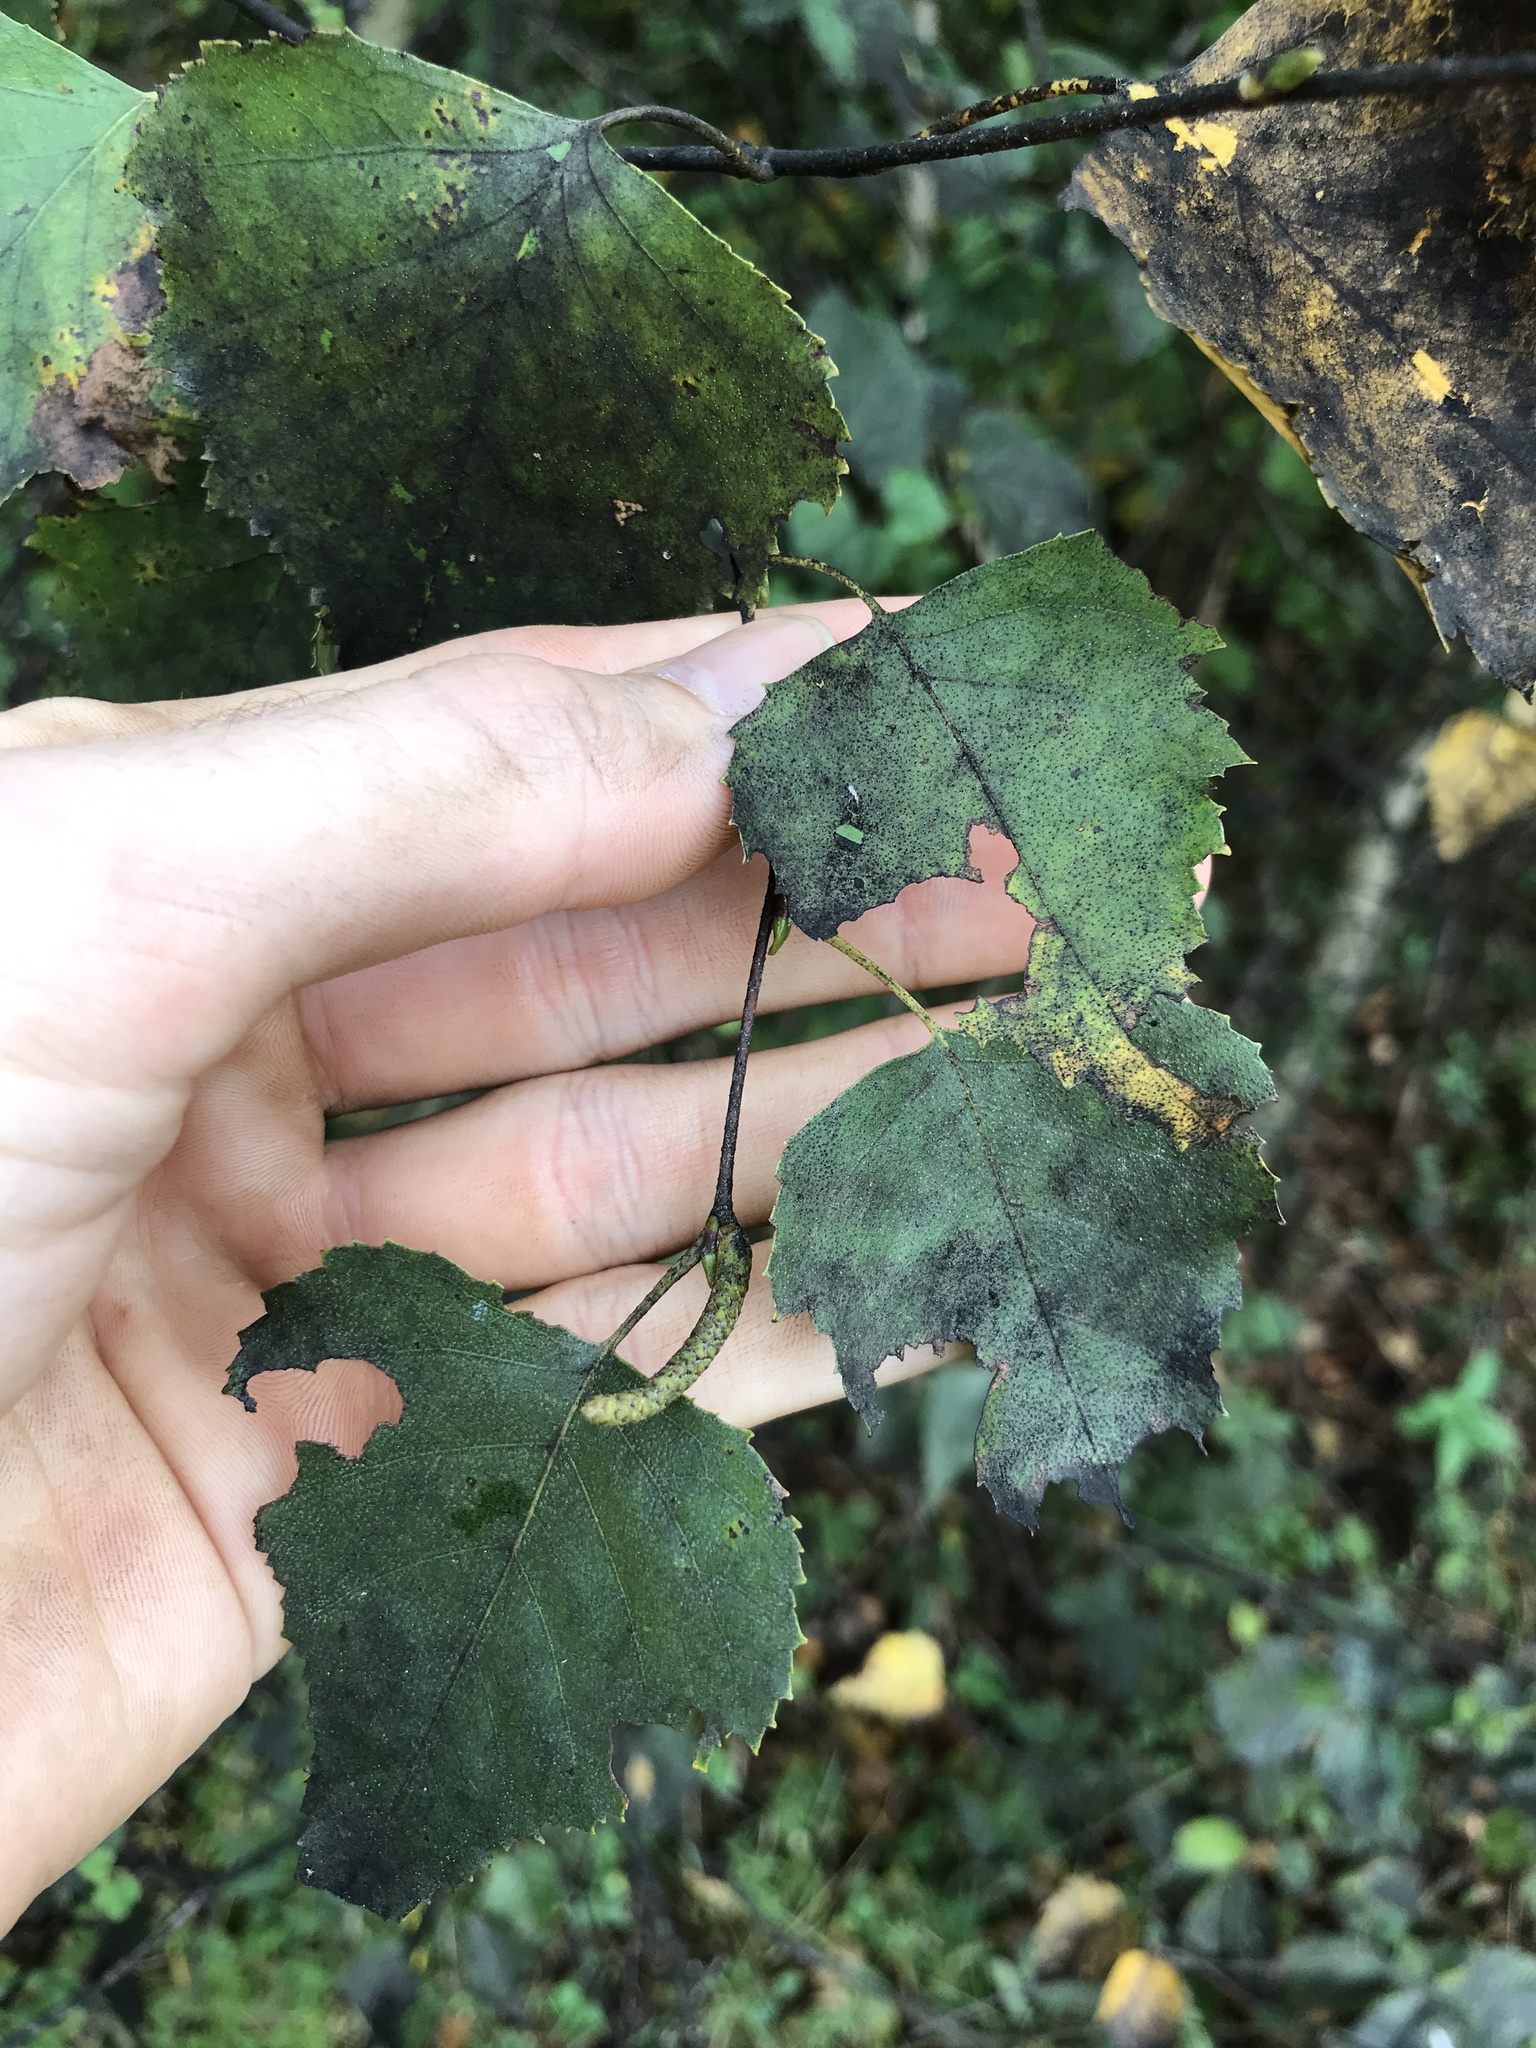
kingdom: Plantae
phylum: Tracheophyta
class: Magnoliopsida
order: Fagales
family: Betulaceae
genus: Betula
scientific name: Betula populifolia
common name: Fire birch
